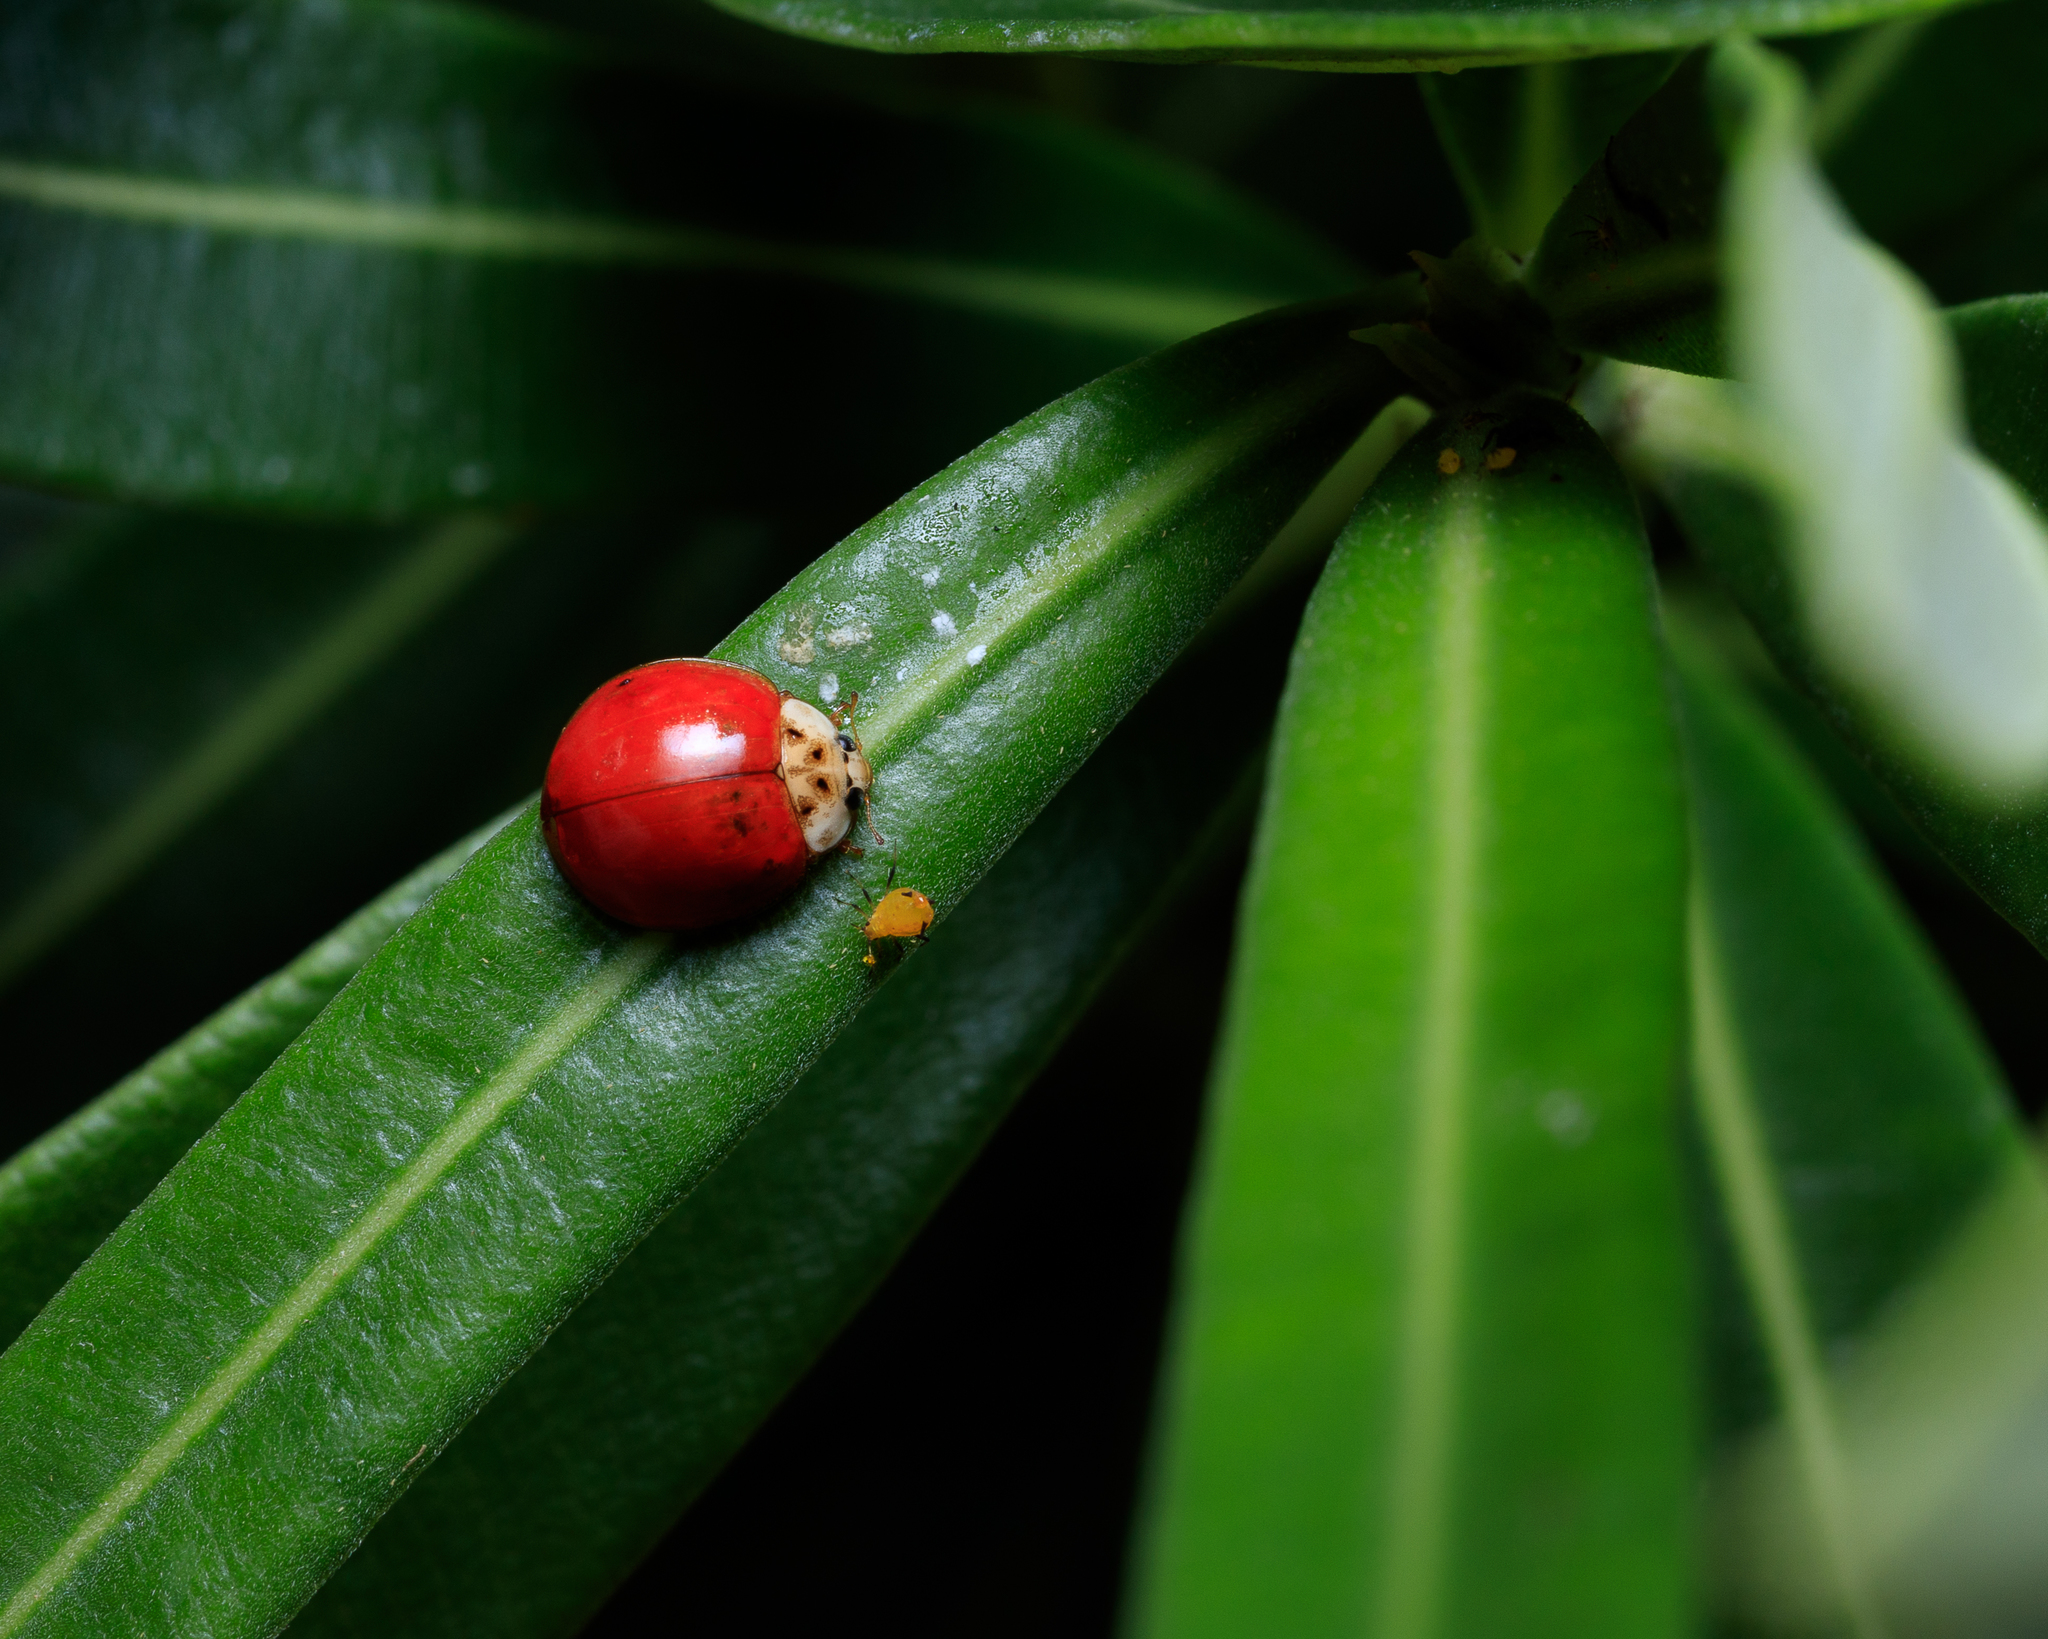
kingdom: Animalia
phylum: Arthropoda
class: Insecta
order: Coleoptera
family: Coccinellidae
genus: Harmonia
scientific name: Harmonia axyridis
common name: Harlequin ladybird
